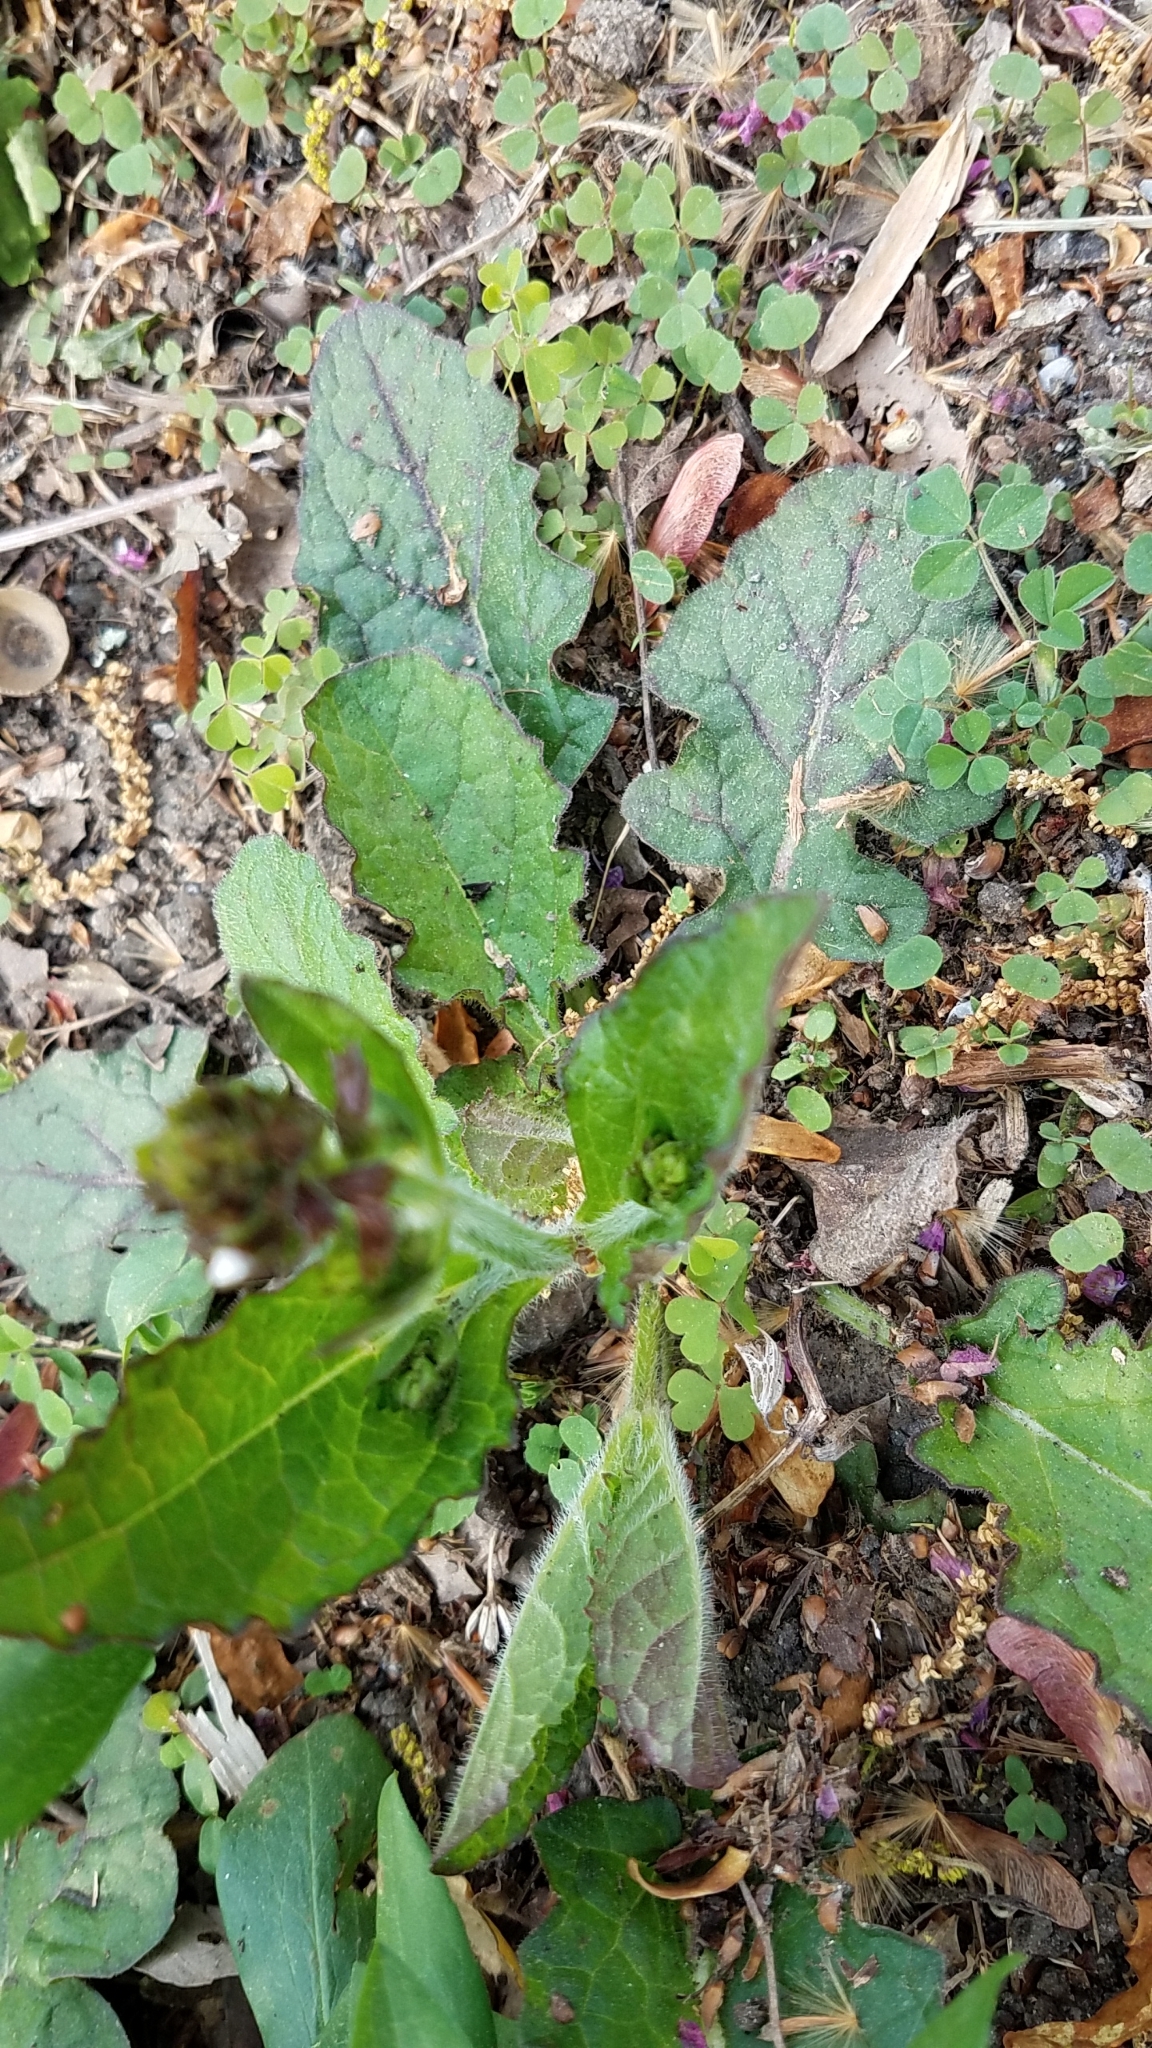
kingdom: Plantae
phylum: Tracheophyta
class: Magnoliopsida
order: Lamiales
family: Lamiaceae
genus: Salvia
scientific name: Salvia lyrata
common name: Cancerweed
